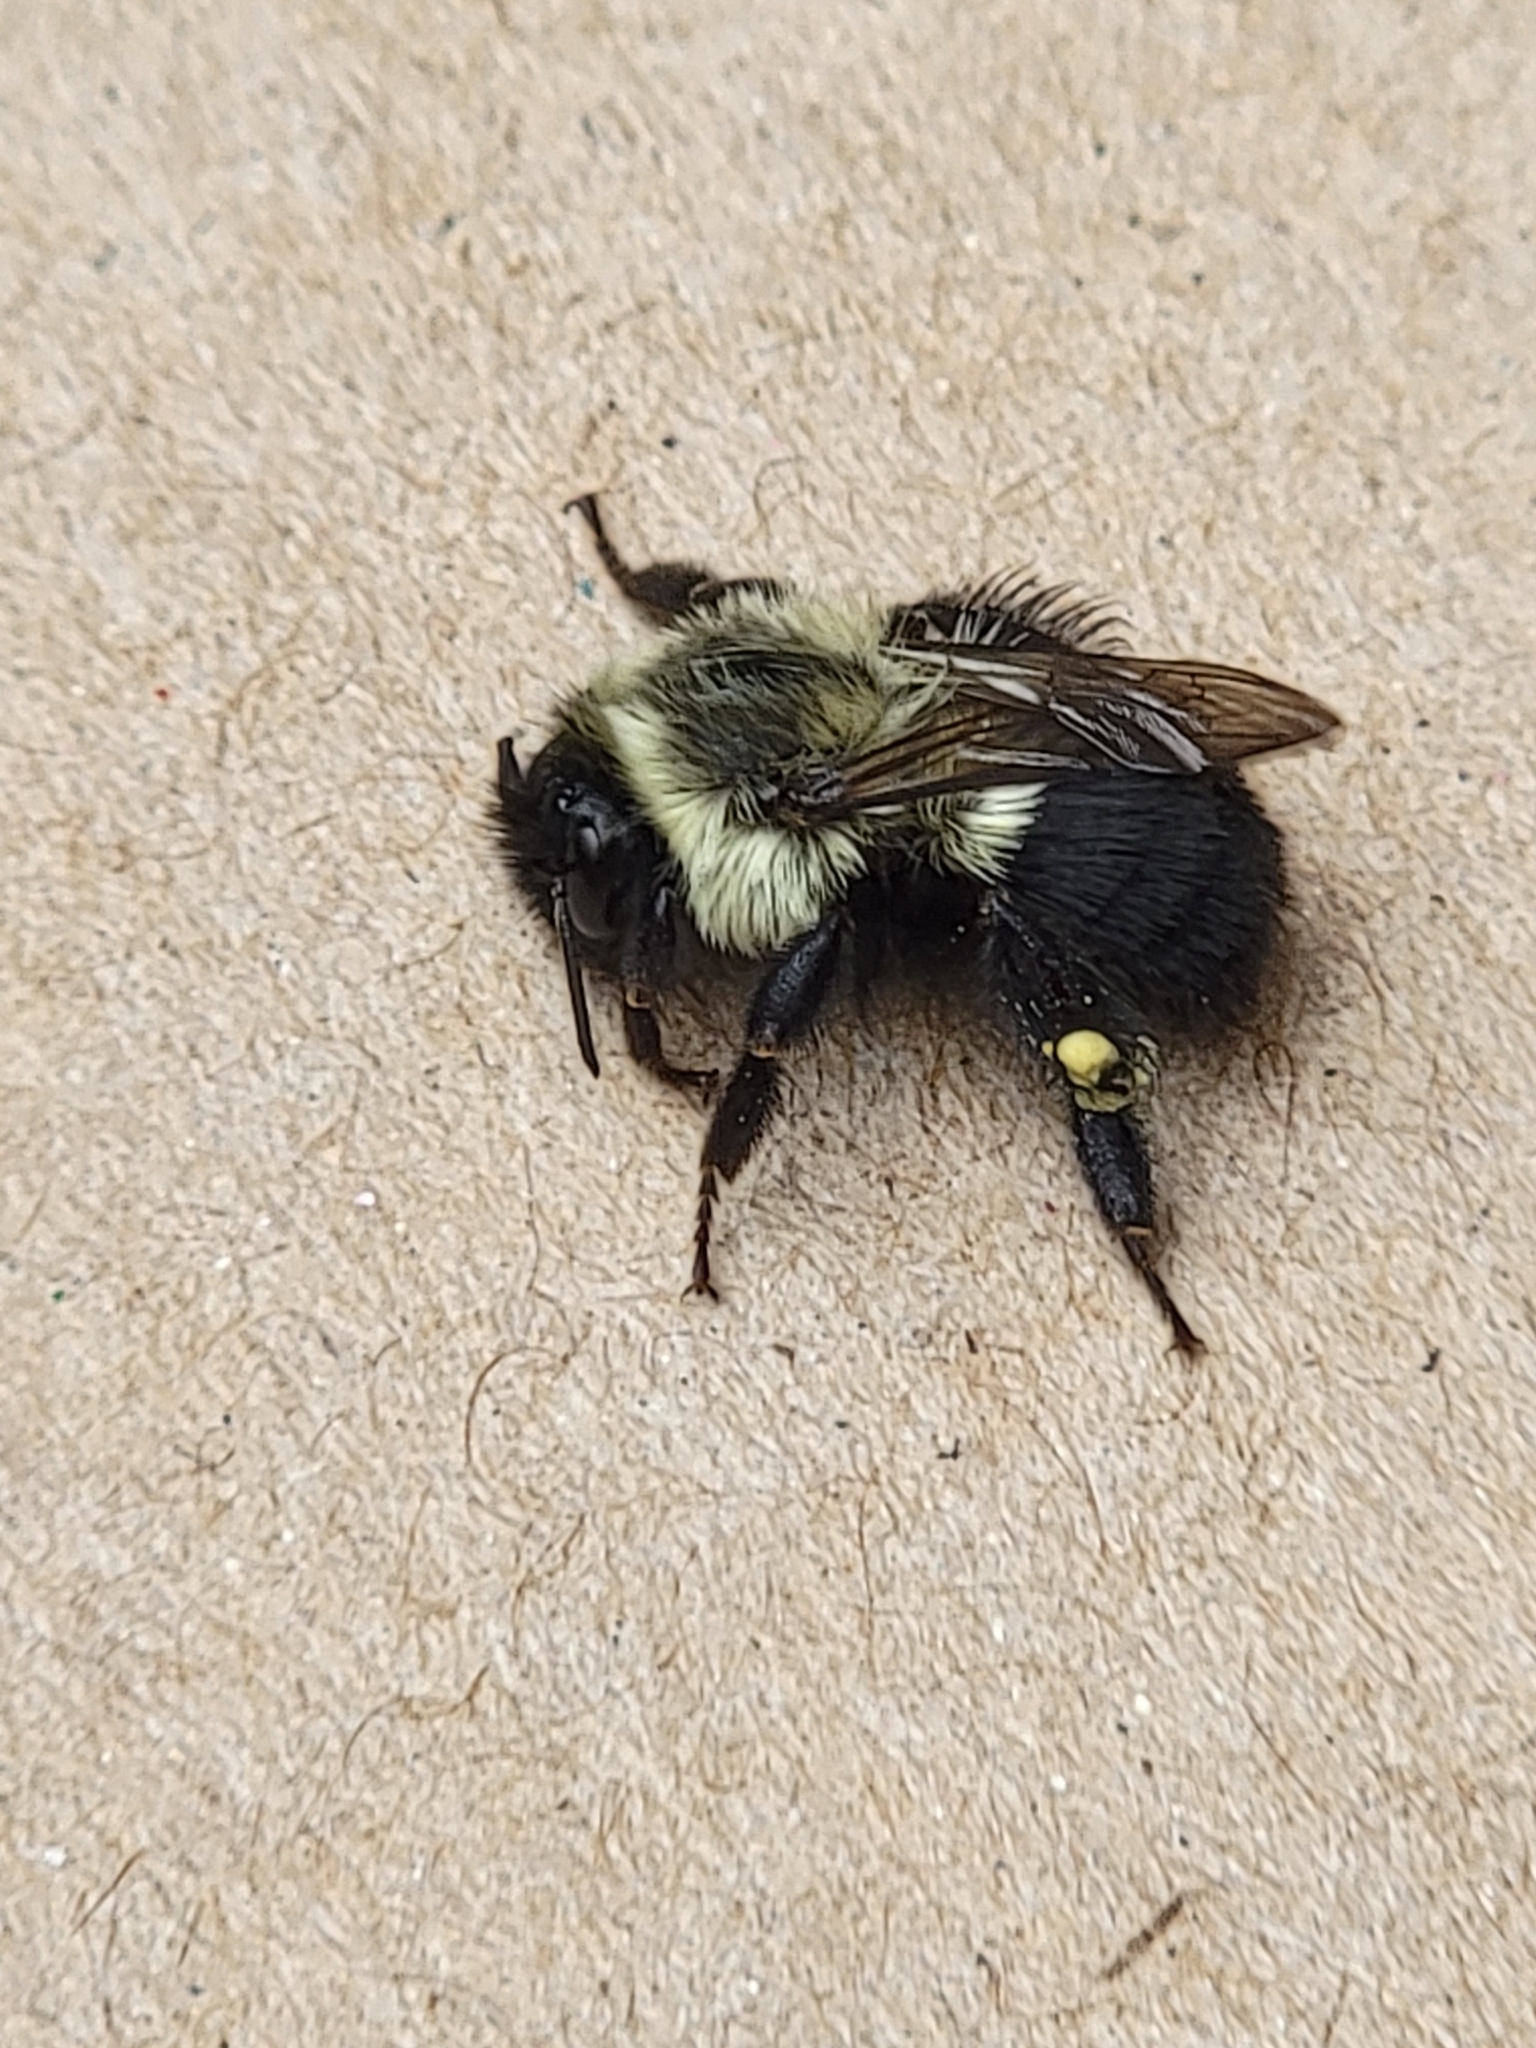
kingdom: Animalia
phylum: Arthropoda
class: Insecta
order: Hymenoptera
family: Apidae
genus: Bombus
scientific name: Bombus impatiens
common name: Common eastern bumble bee
